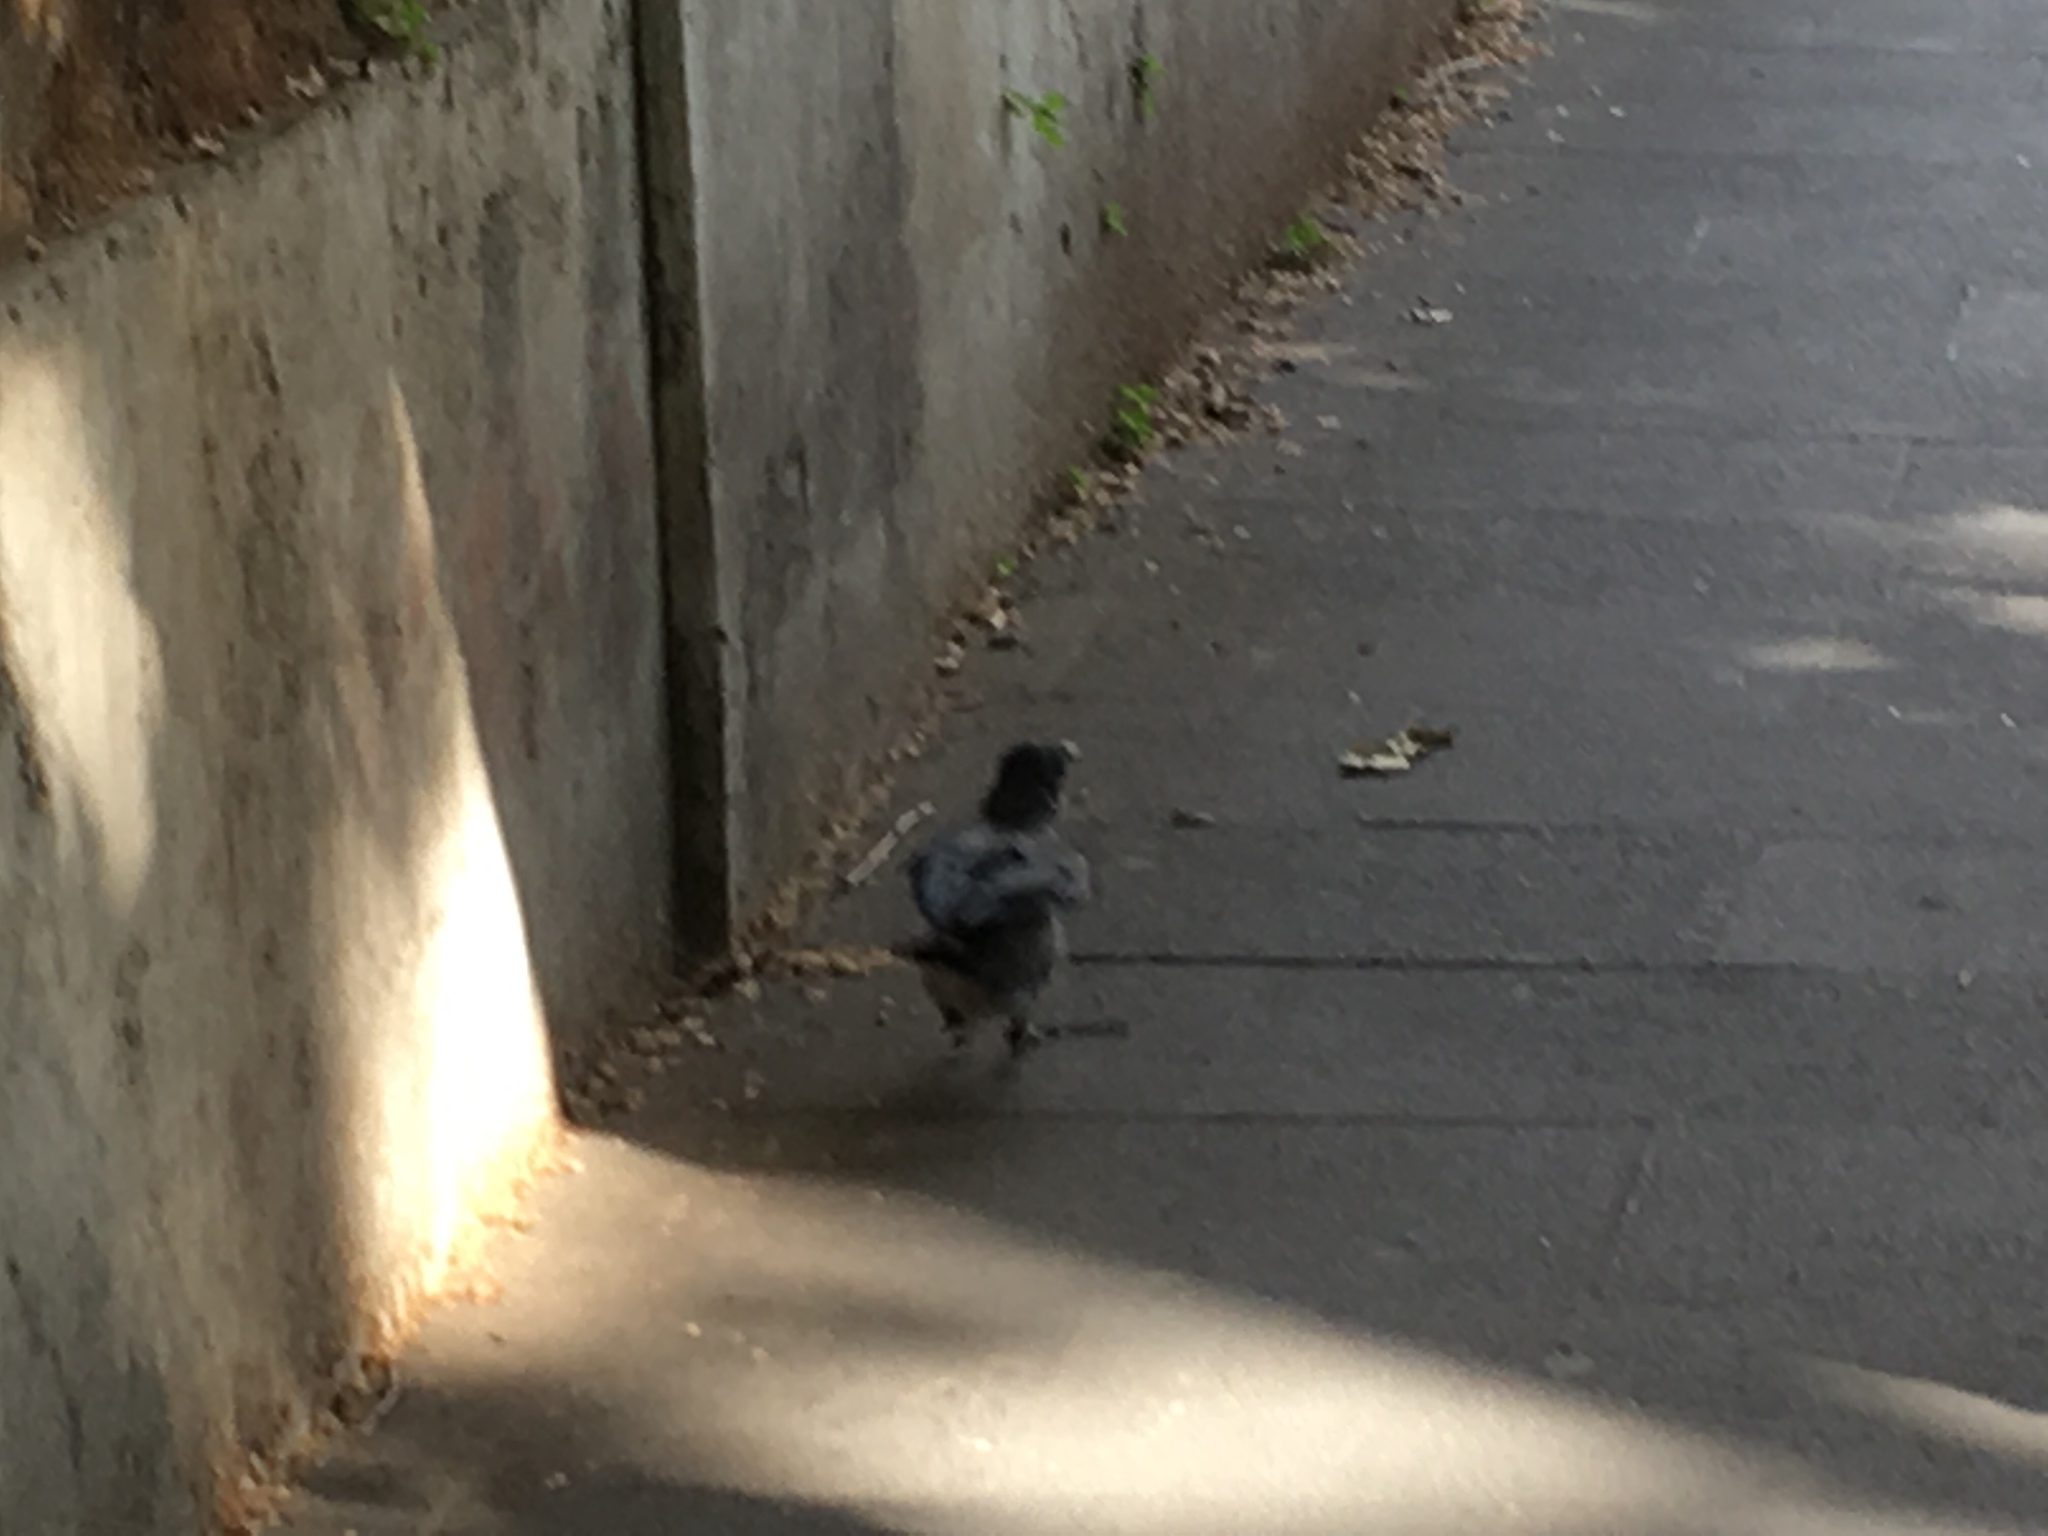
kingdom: Animalia
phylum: Chordata
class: Aves
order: Passeriformes
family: Corvidae
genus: Corvus
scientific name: Corvus cornix
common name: Hooded crow
